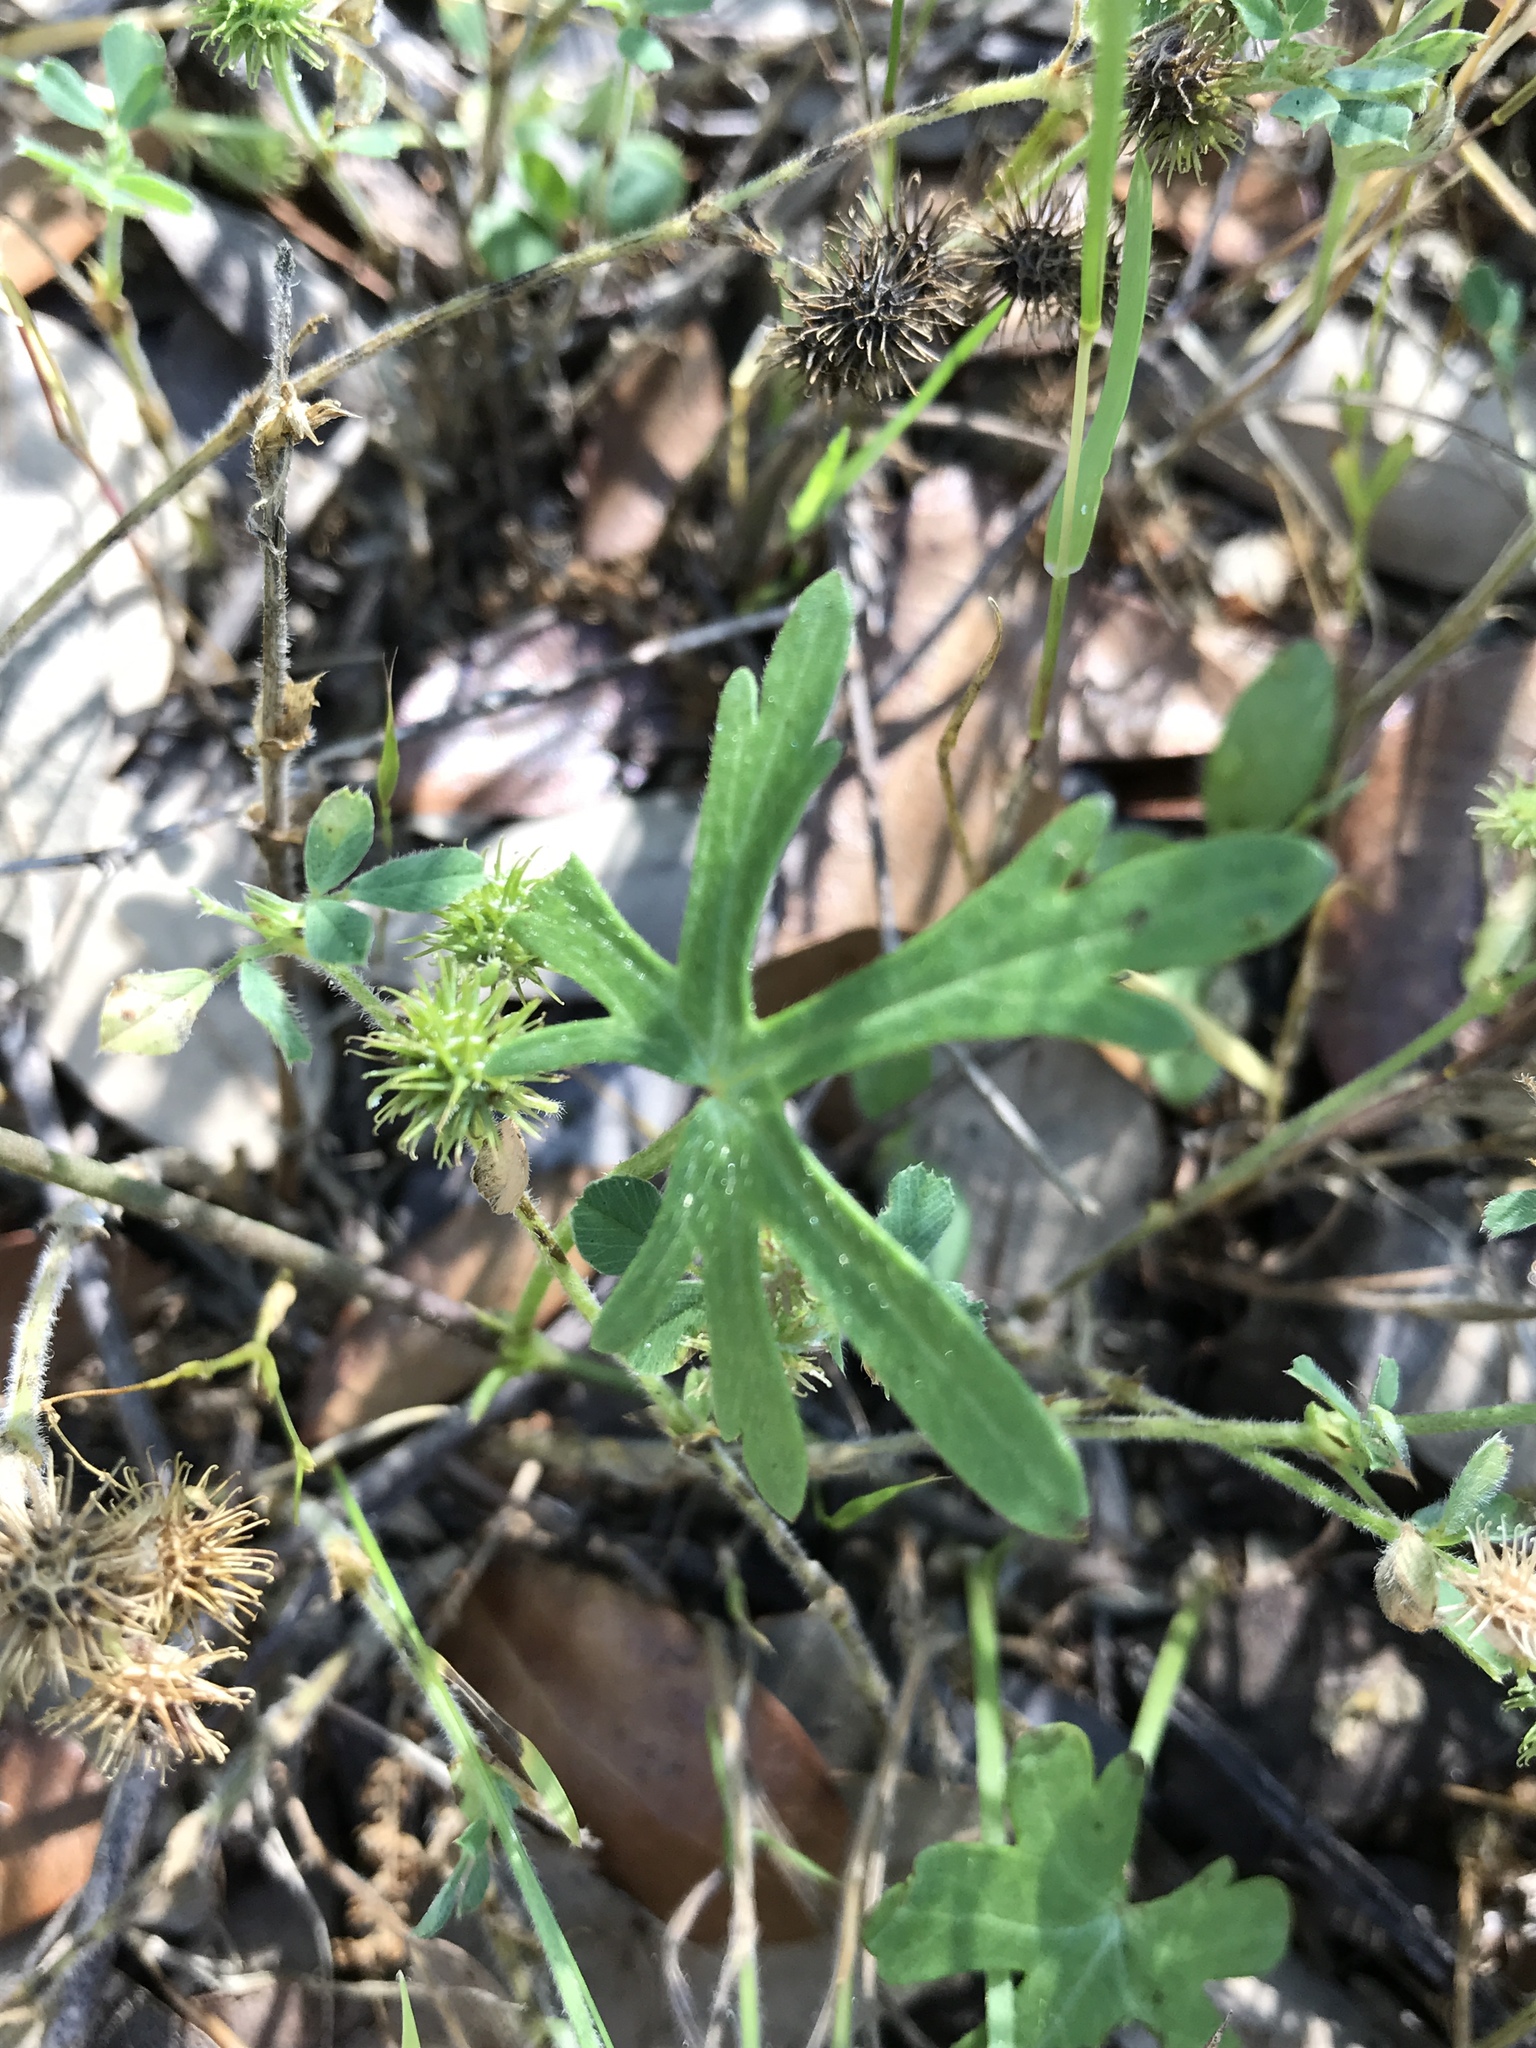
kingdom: Plantae
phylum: Tracheophyta
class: Magnoliopsida
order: Malvales
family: Malvaceae
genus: Callirhoe
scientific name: Callirhoe involucrata
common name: Purple poppy-mallow
